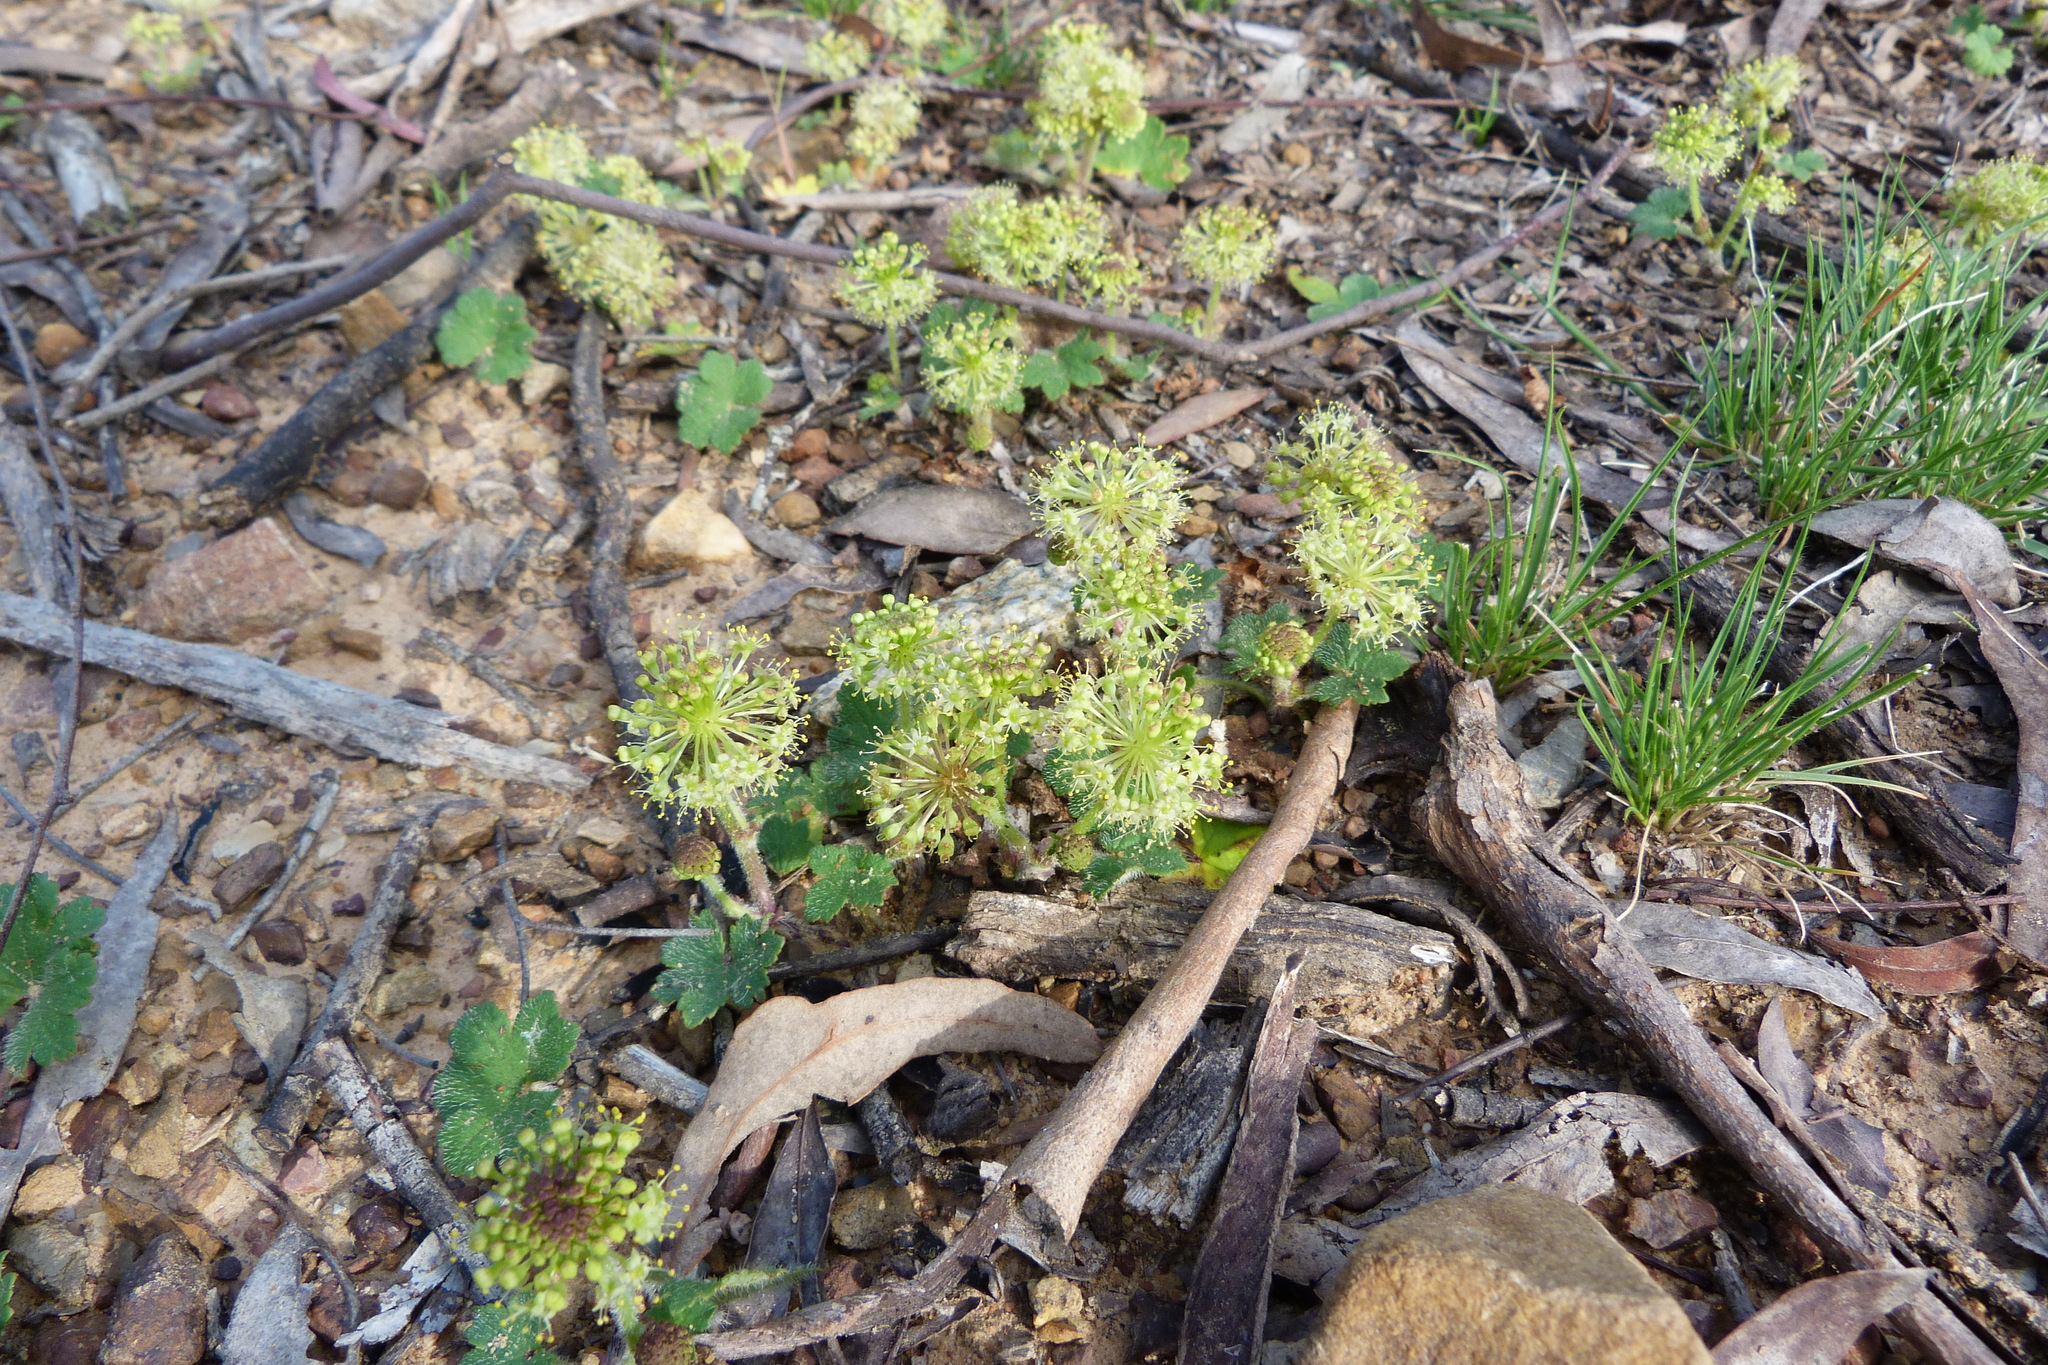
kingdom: Plantae
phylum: Tracheophyta
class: Magnoliopsida
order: Apiales
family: Araliaceae
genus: Hydrocotyle
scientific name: Hydrocotyle laxiflora
